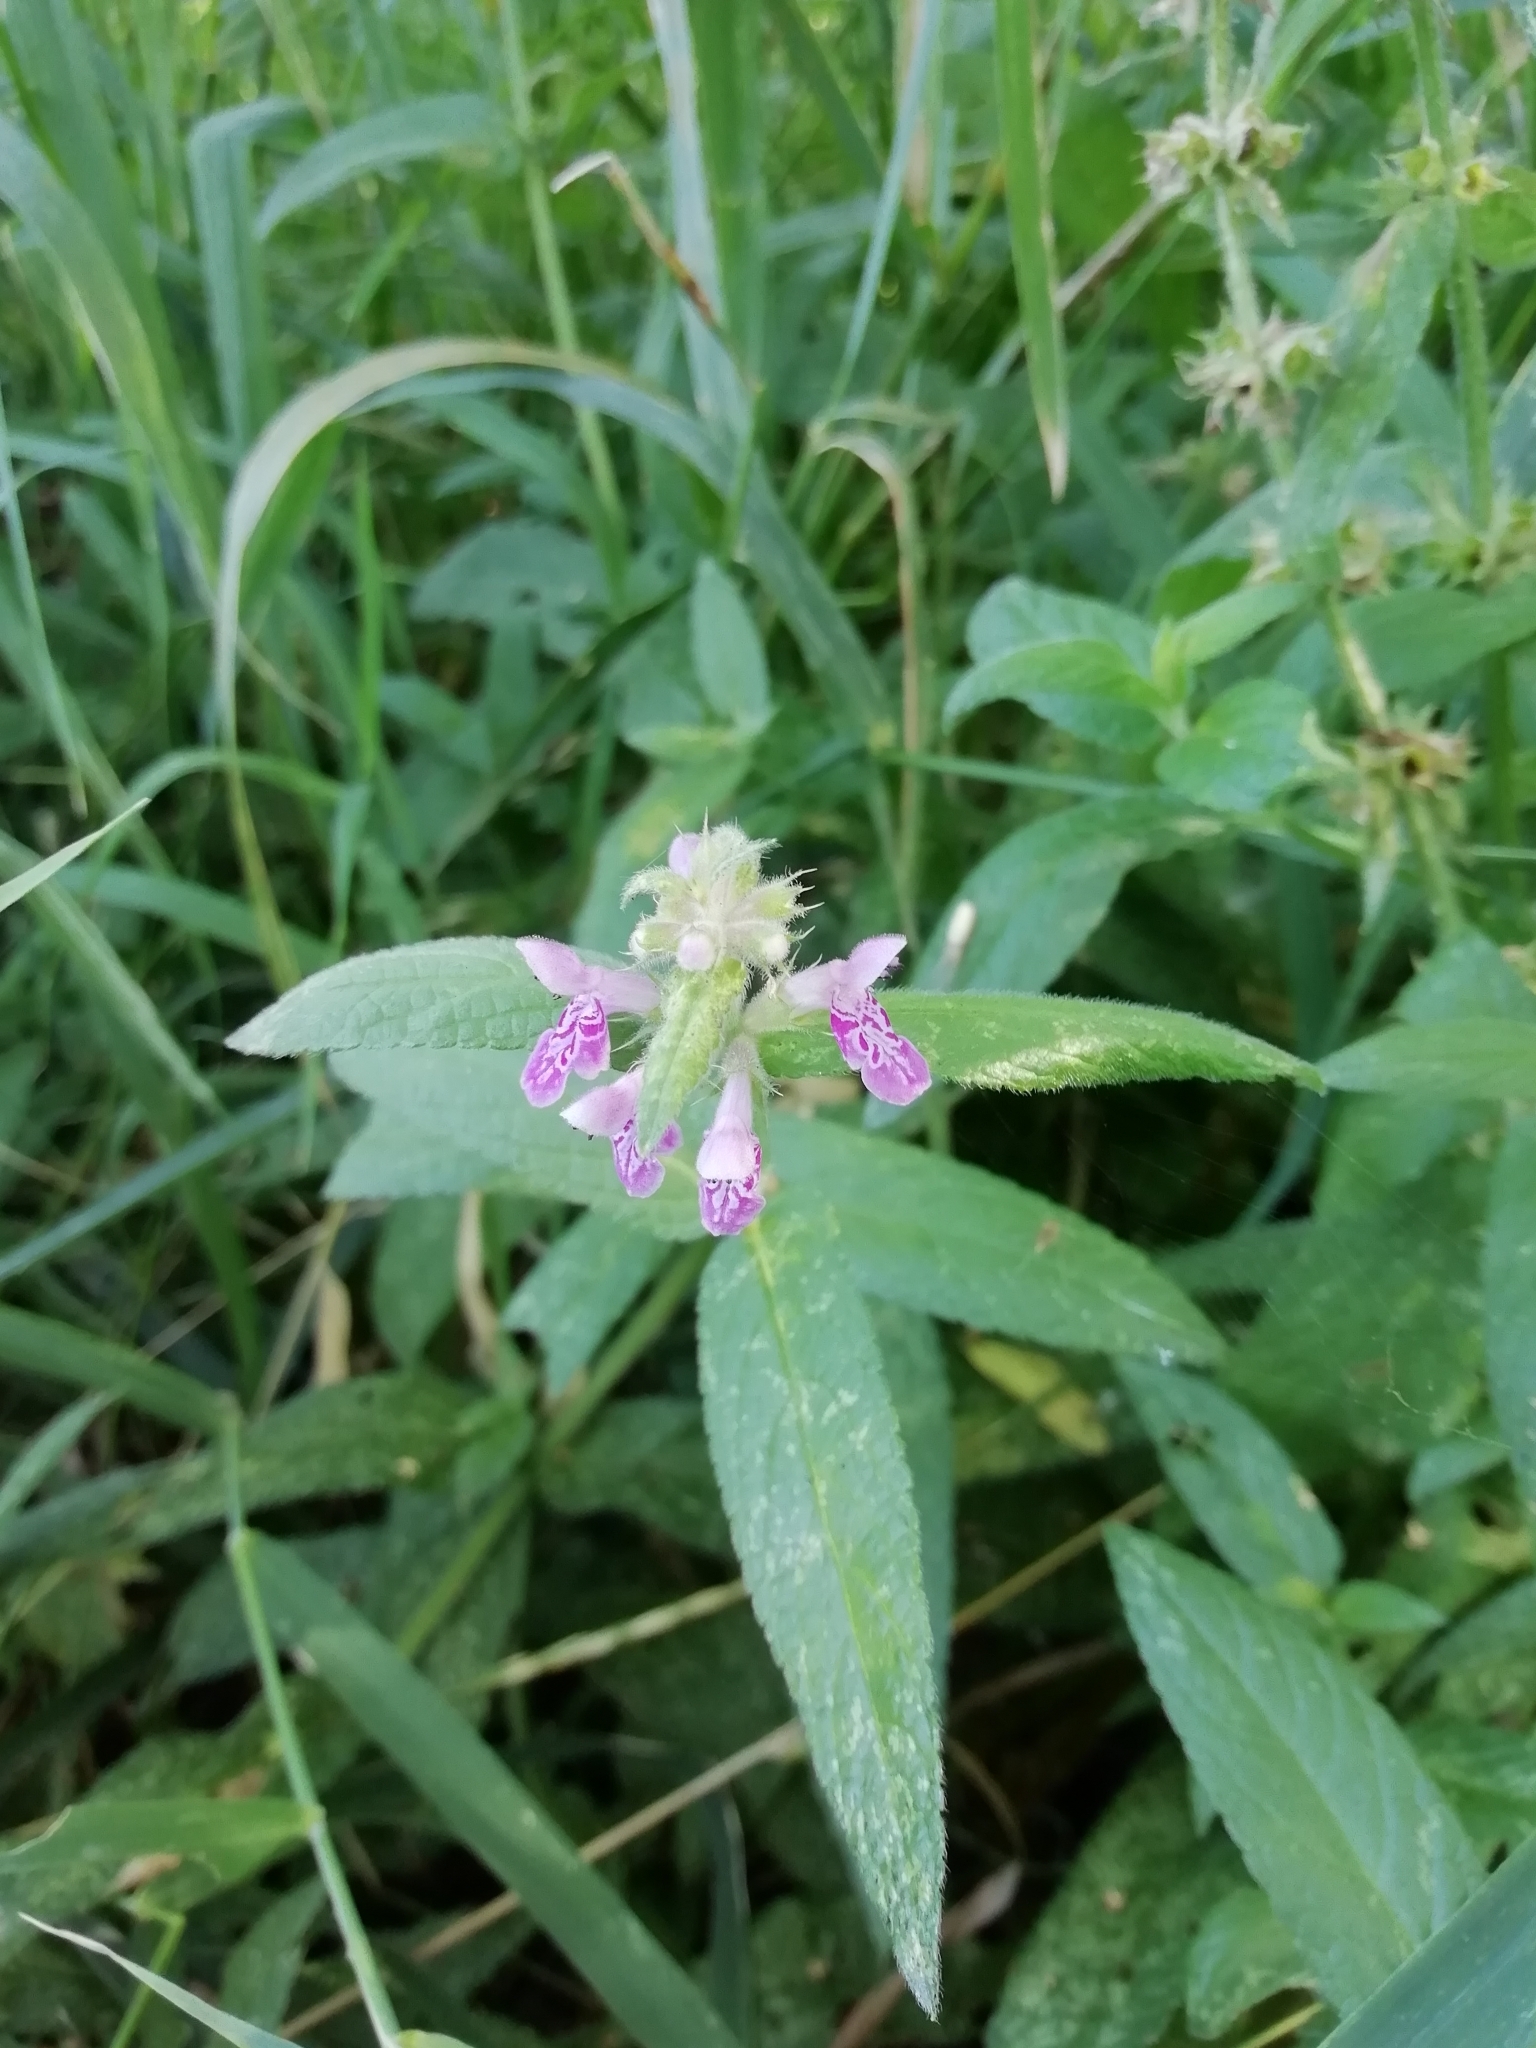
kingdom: Plantae
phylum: Tracheophyta
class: Magnoliopsida
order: Lamiales
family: Lamiaceae
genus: Stachys
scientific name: Stachys palustris
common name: Marsh woundwort
